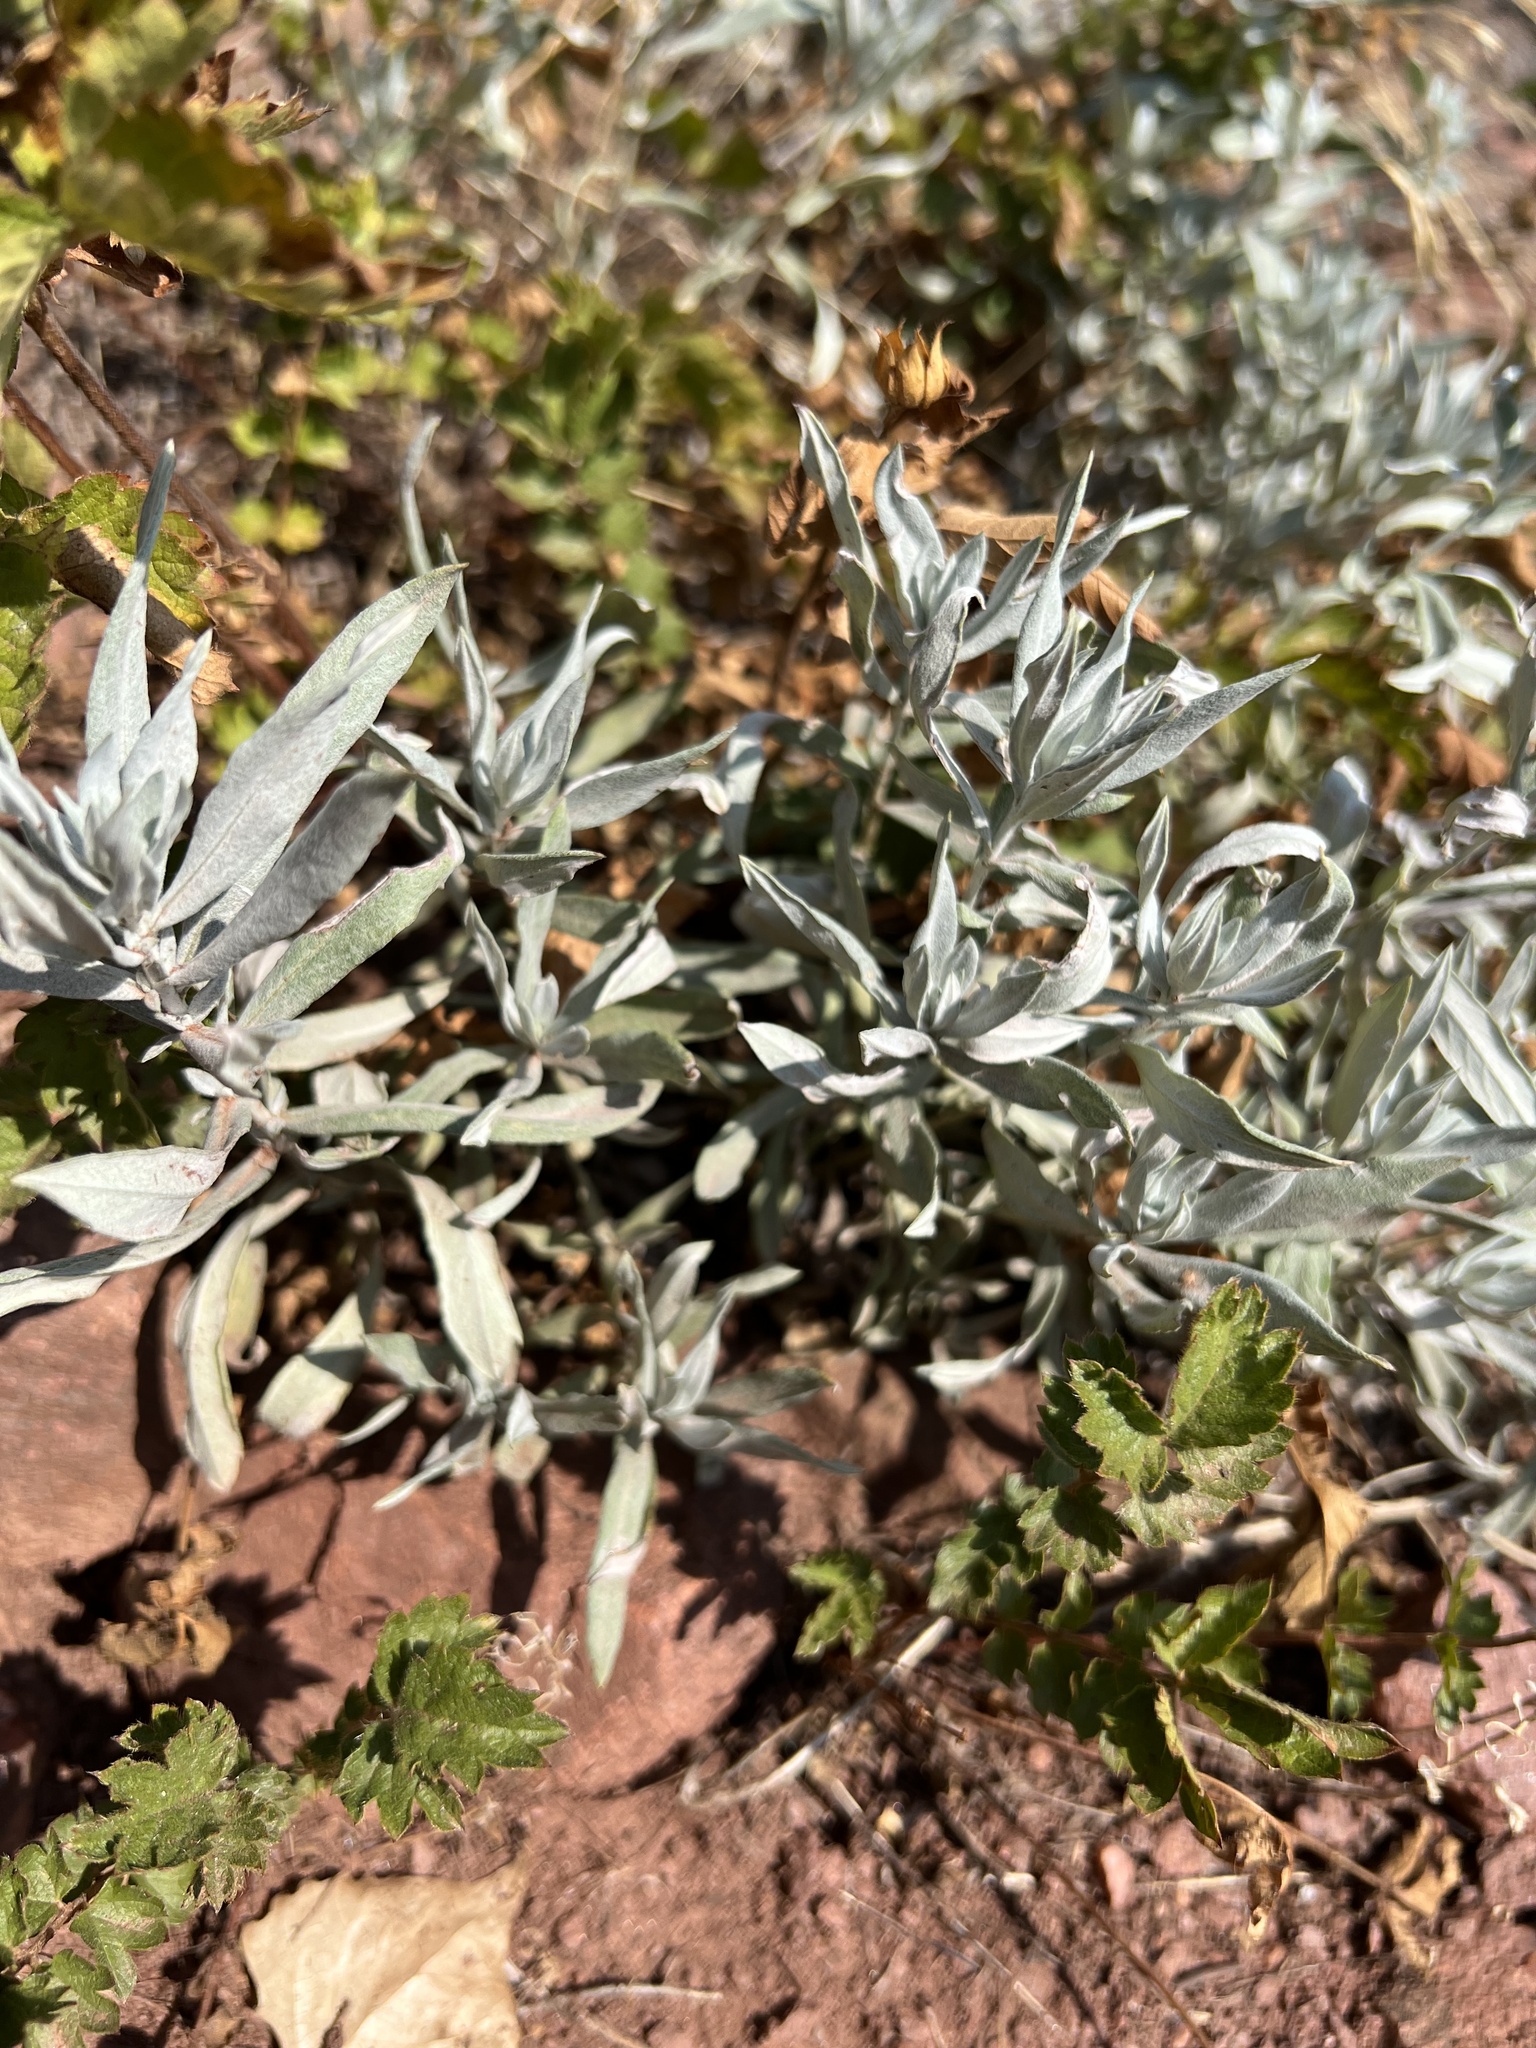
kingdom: Plantae
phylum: Tracheophyta
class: Magnoliopsida
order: Asterales
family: Asteraceae
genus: Artemisia
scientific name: Artemisia ludoviciana
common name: Western mugwort
